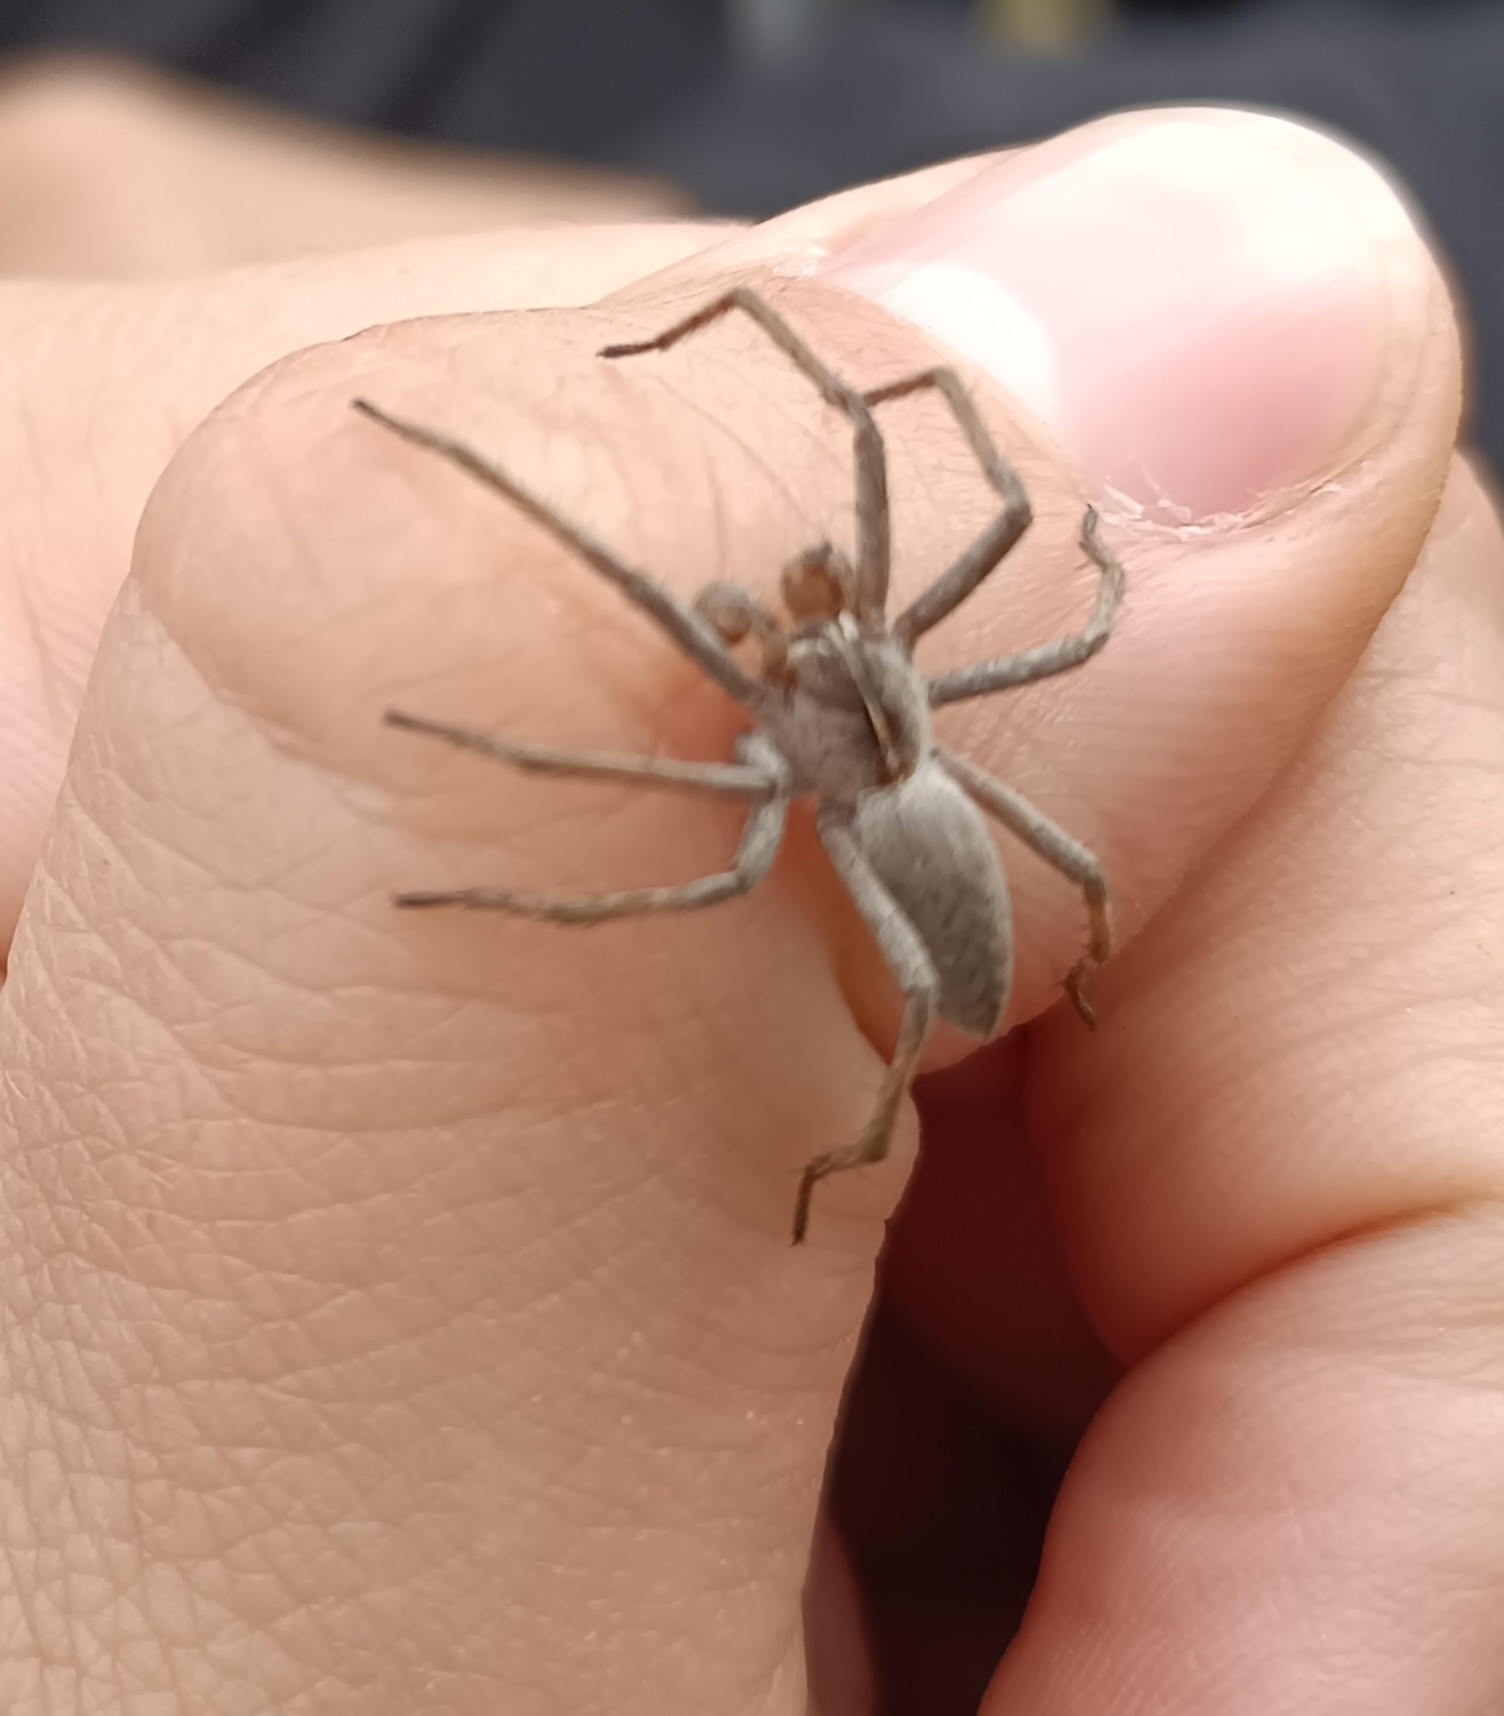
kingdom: Animalia
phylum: Arthropoda
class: Arachnida
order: Araneae
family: Pisauridae
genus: Pisaura
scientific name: Pisaura mirabilis
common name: Tent spider
